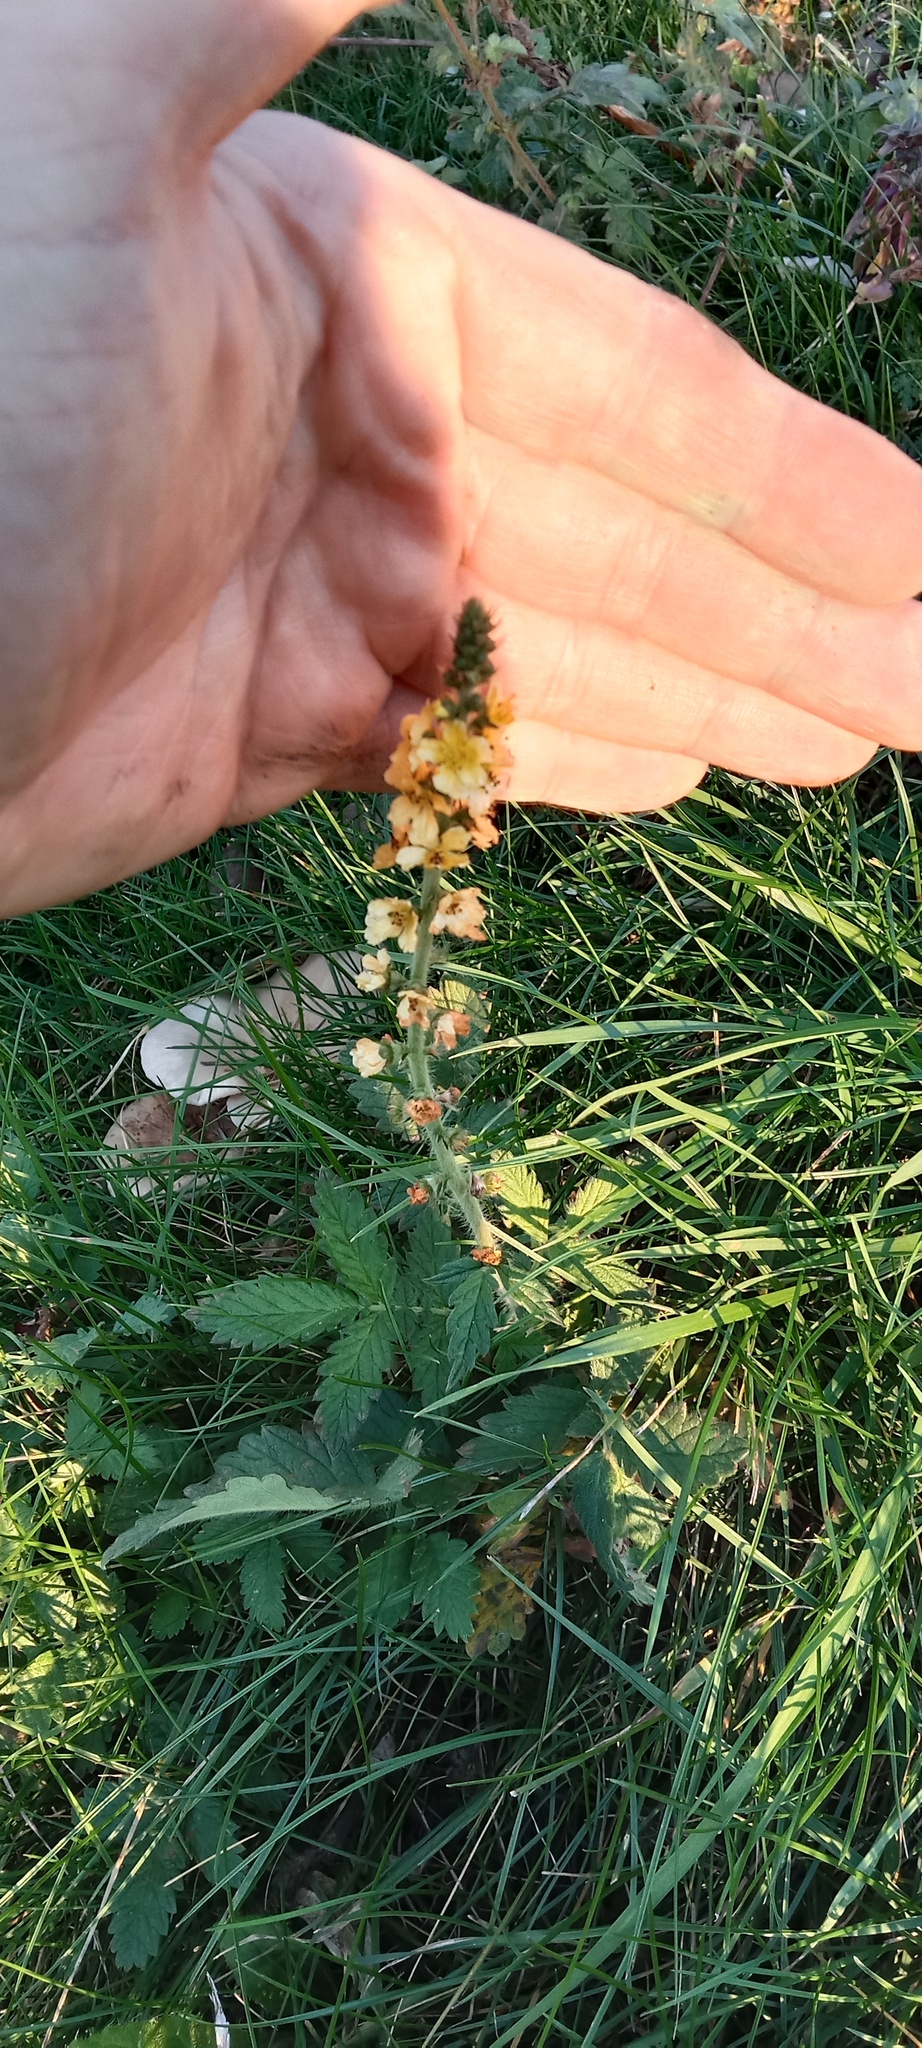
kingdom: Plantae
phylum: Tracheophyta
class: Magnoliopsida
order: Rosales
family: Rosaceae
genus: Agrimonia
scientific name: Agrimonia eupatoria
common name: Agrimony
